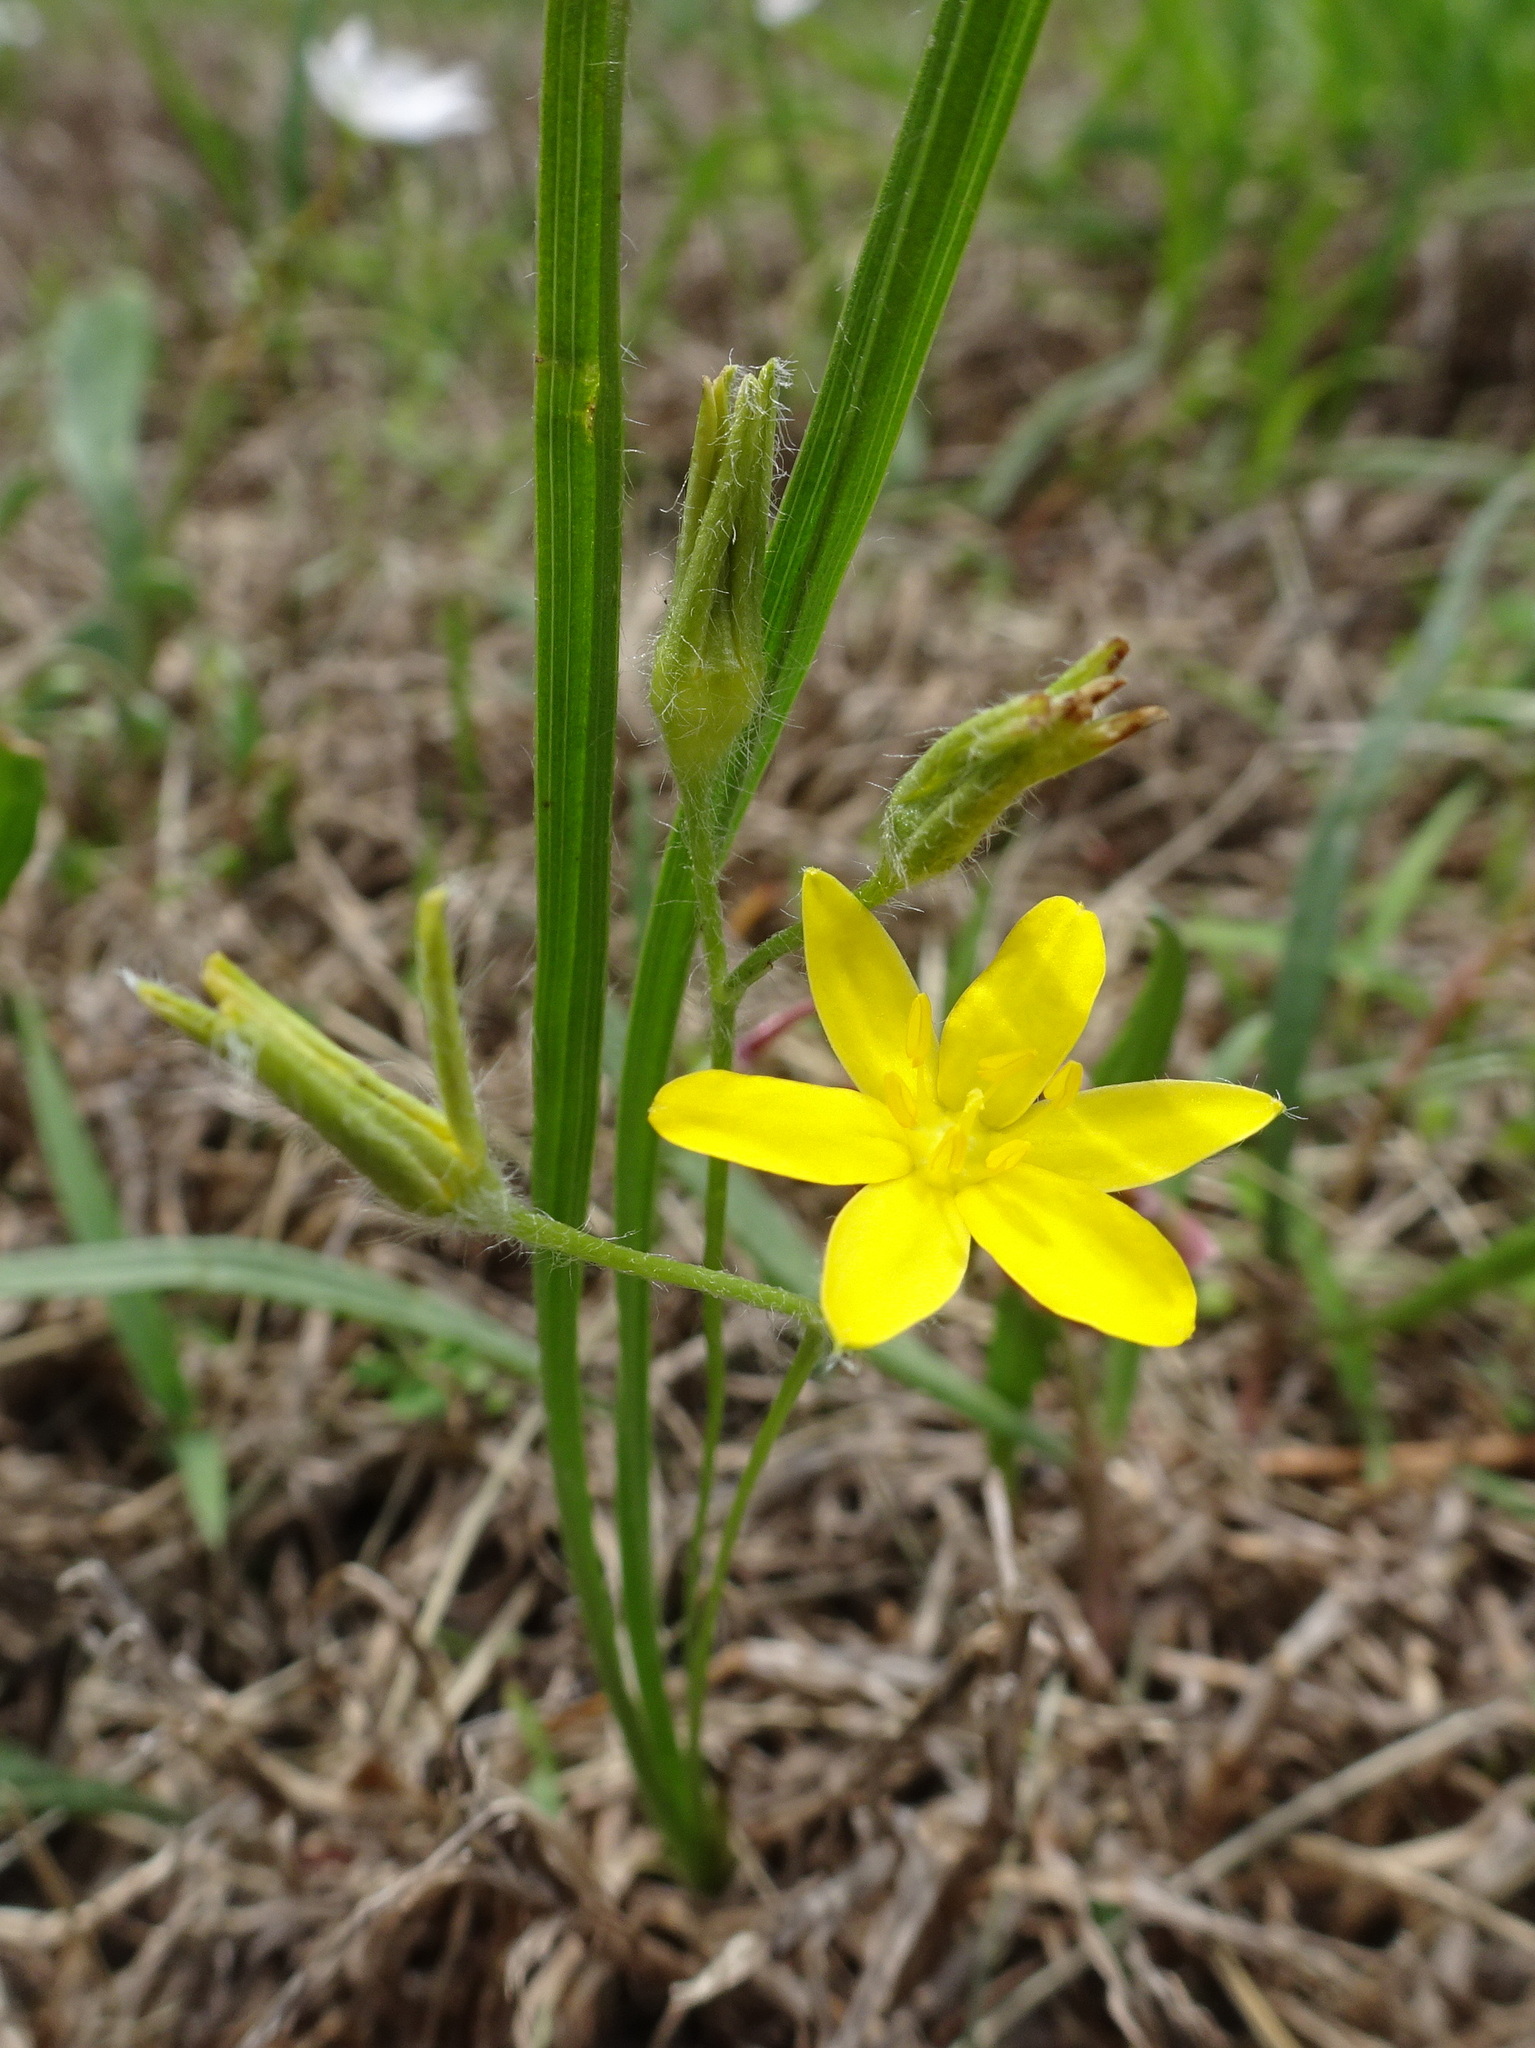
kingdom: Plantae
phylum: Tracheophyta
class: Liliopsida
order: Asparagales
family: Hypoxidaceae
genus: Hypoxis
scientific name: Hypoxis hirsuta
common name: Common goldstar
